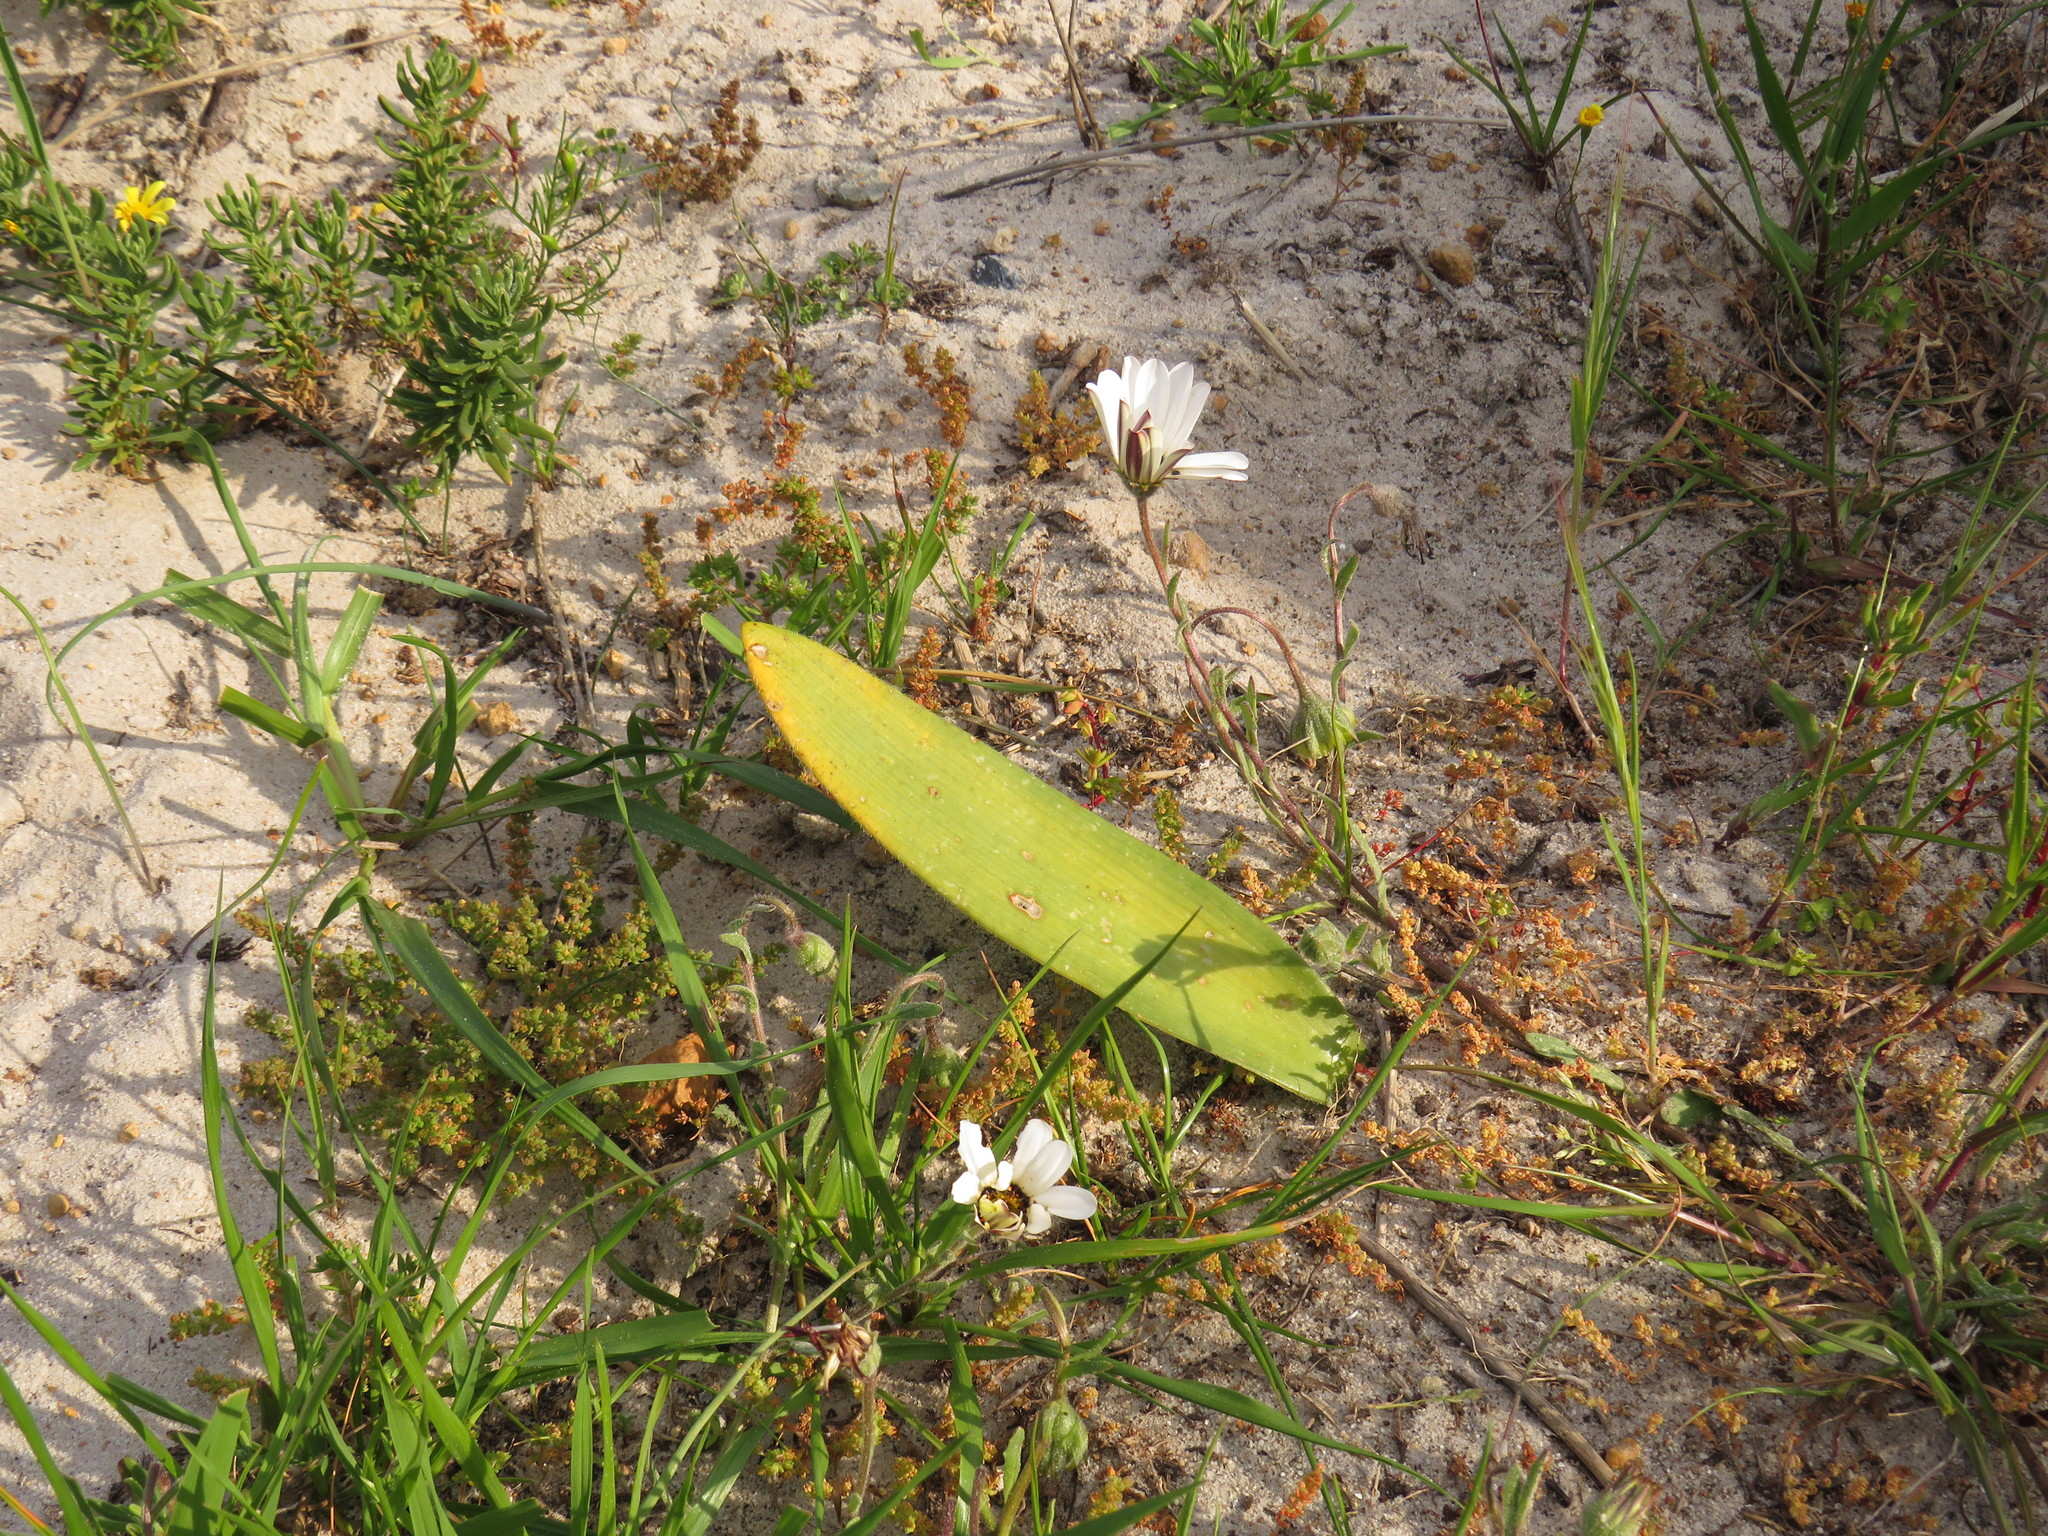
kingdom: Plantae
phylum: Tracheophyta
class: Liliopsida
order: Asparagales
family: Amaryllidaceae
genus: Haemanthus
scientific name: Haemanthus pubescens
